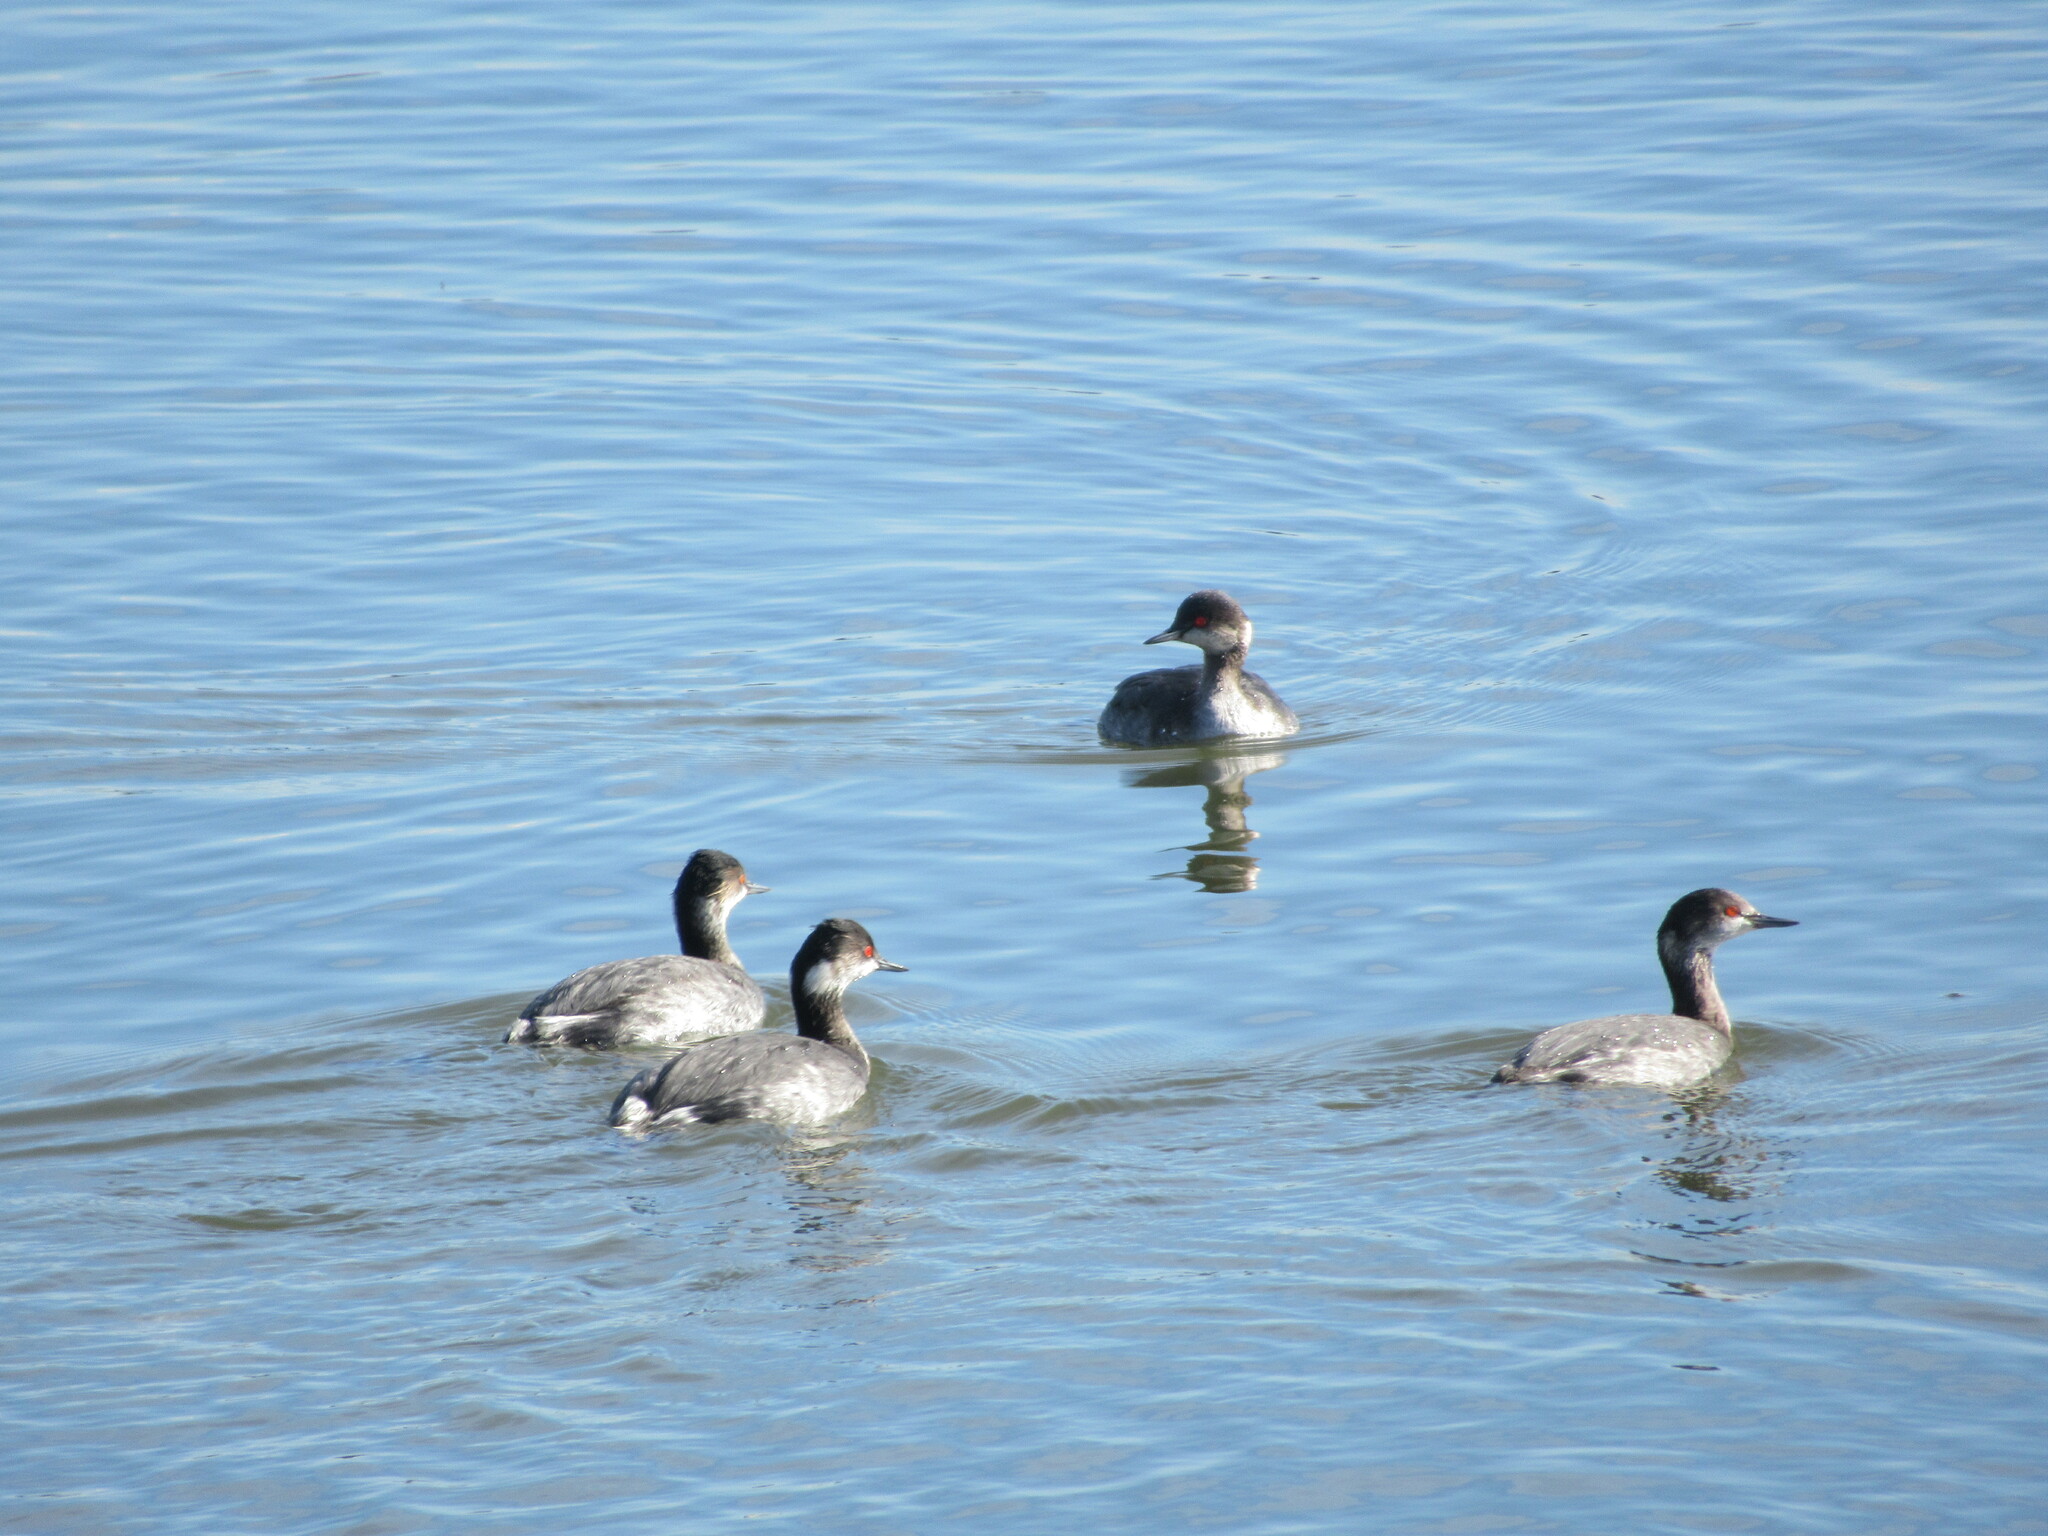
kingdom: Animalia
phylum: Chordata
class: Aves
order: Podicipediformes
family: Podicipedidae
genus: Podiceps
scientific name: Podiceps nigricollis
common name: Black-necked grebe
